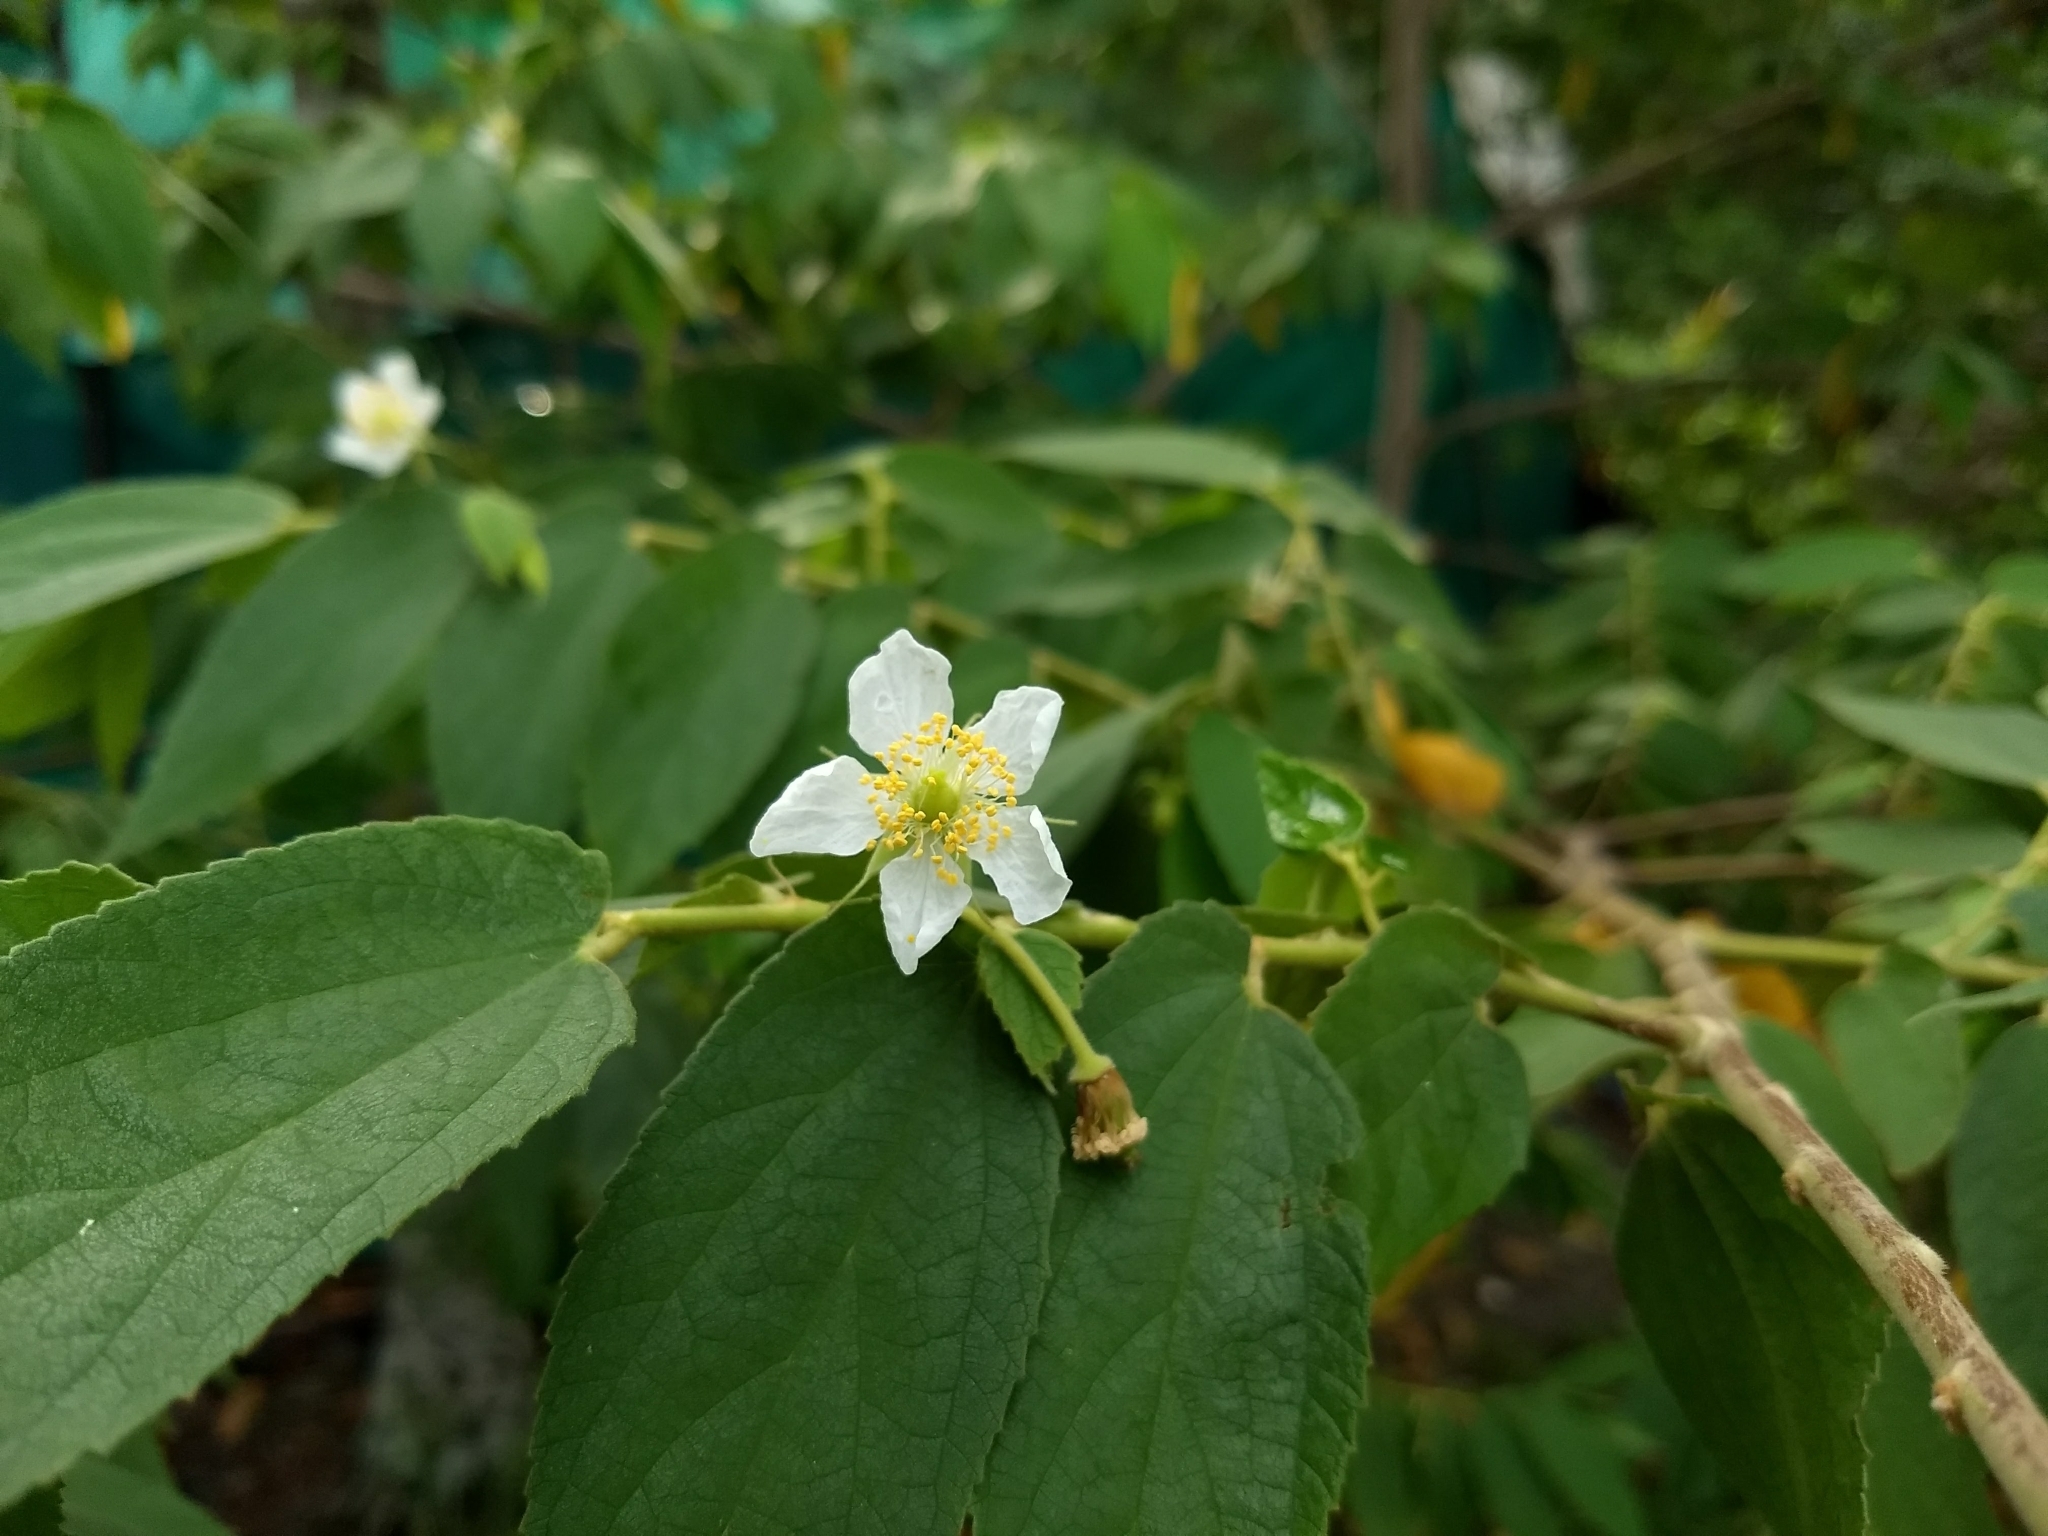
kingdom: Plantae
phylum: Tracheophyta
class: Magnoliopsida
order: Malvales
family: Muntingiaceae
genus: Muntingia
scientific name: Muntingia calabura
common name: Strawberrytree
